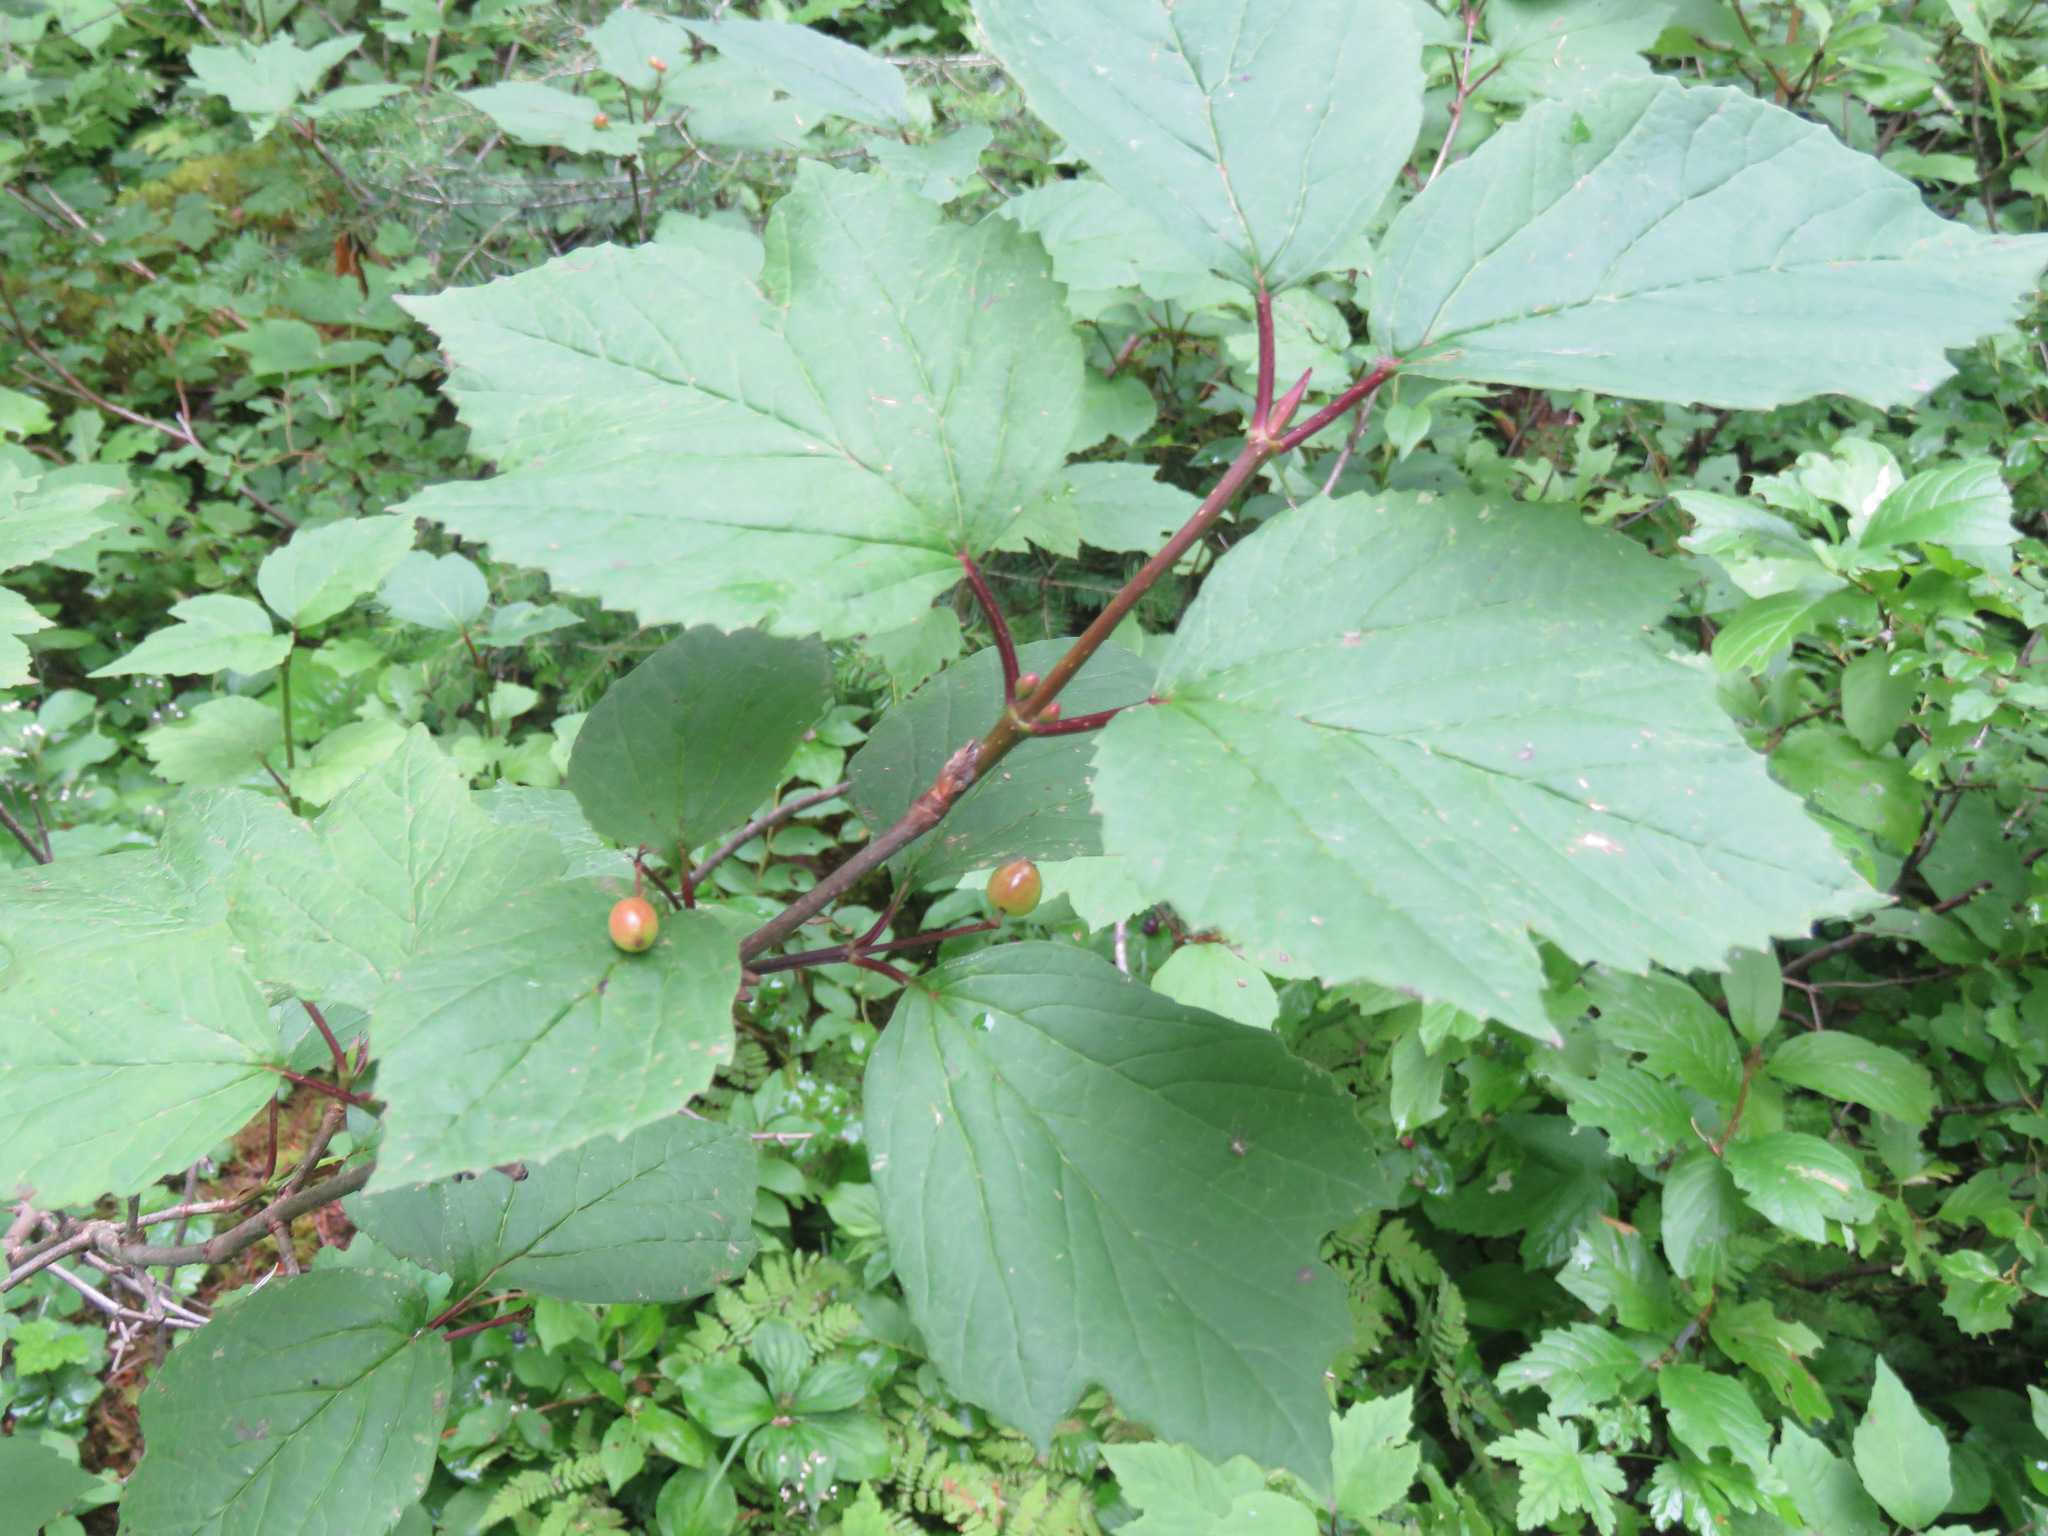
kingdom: Plantae
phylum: Tracheophyta
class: Magnoliopsida
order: Dipsacales
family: Viburnaceae
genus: Viburnum
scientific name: Viburnum edule
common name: Mooseberry
